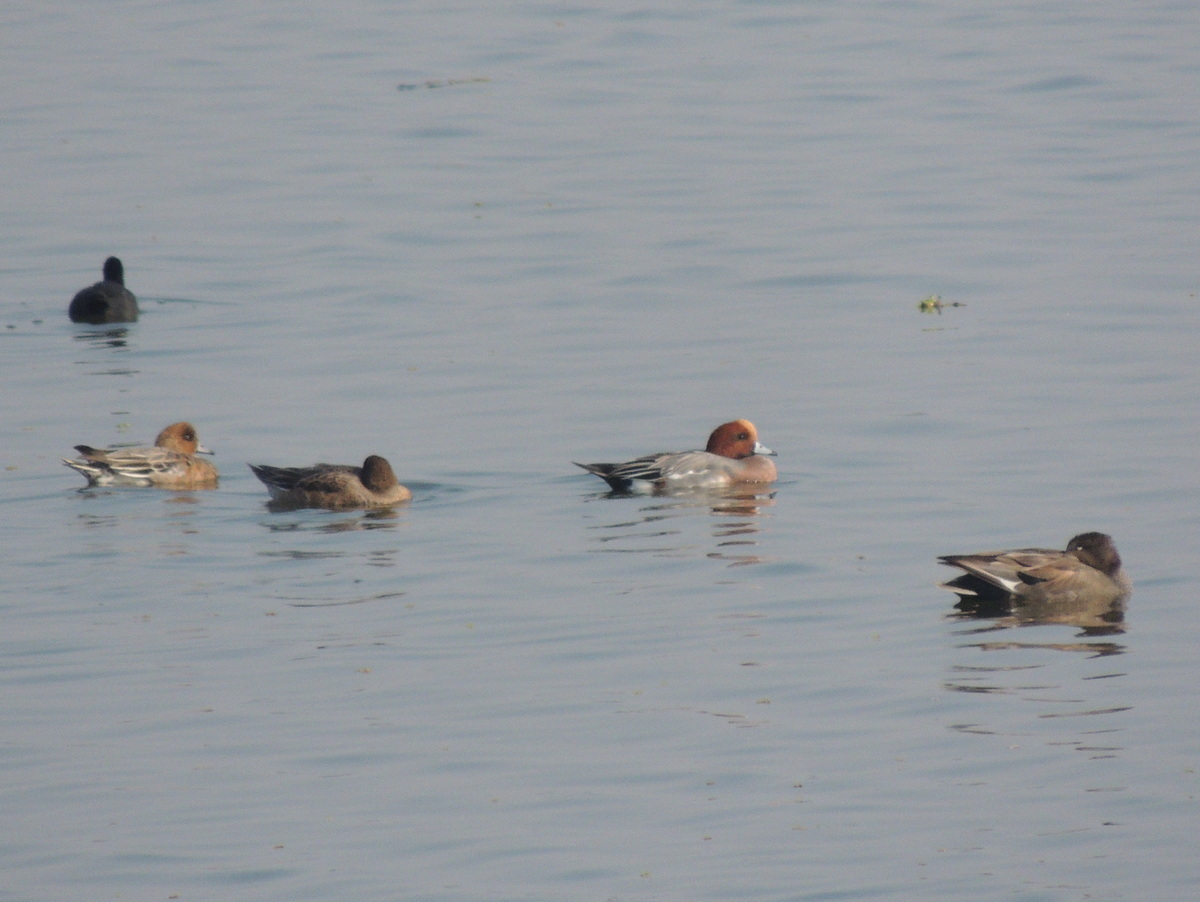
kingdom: Animalia
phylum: Chordata
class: Aves
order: Anseriformes
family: Anatidae
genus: Mareca
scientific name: Mareca penelope
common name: Eurasian wigeon
